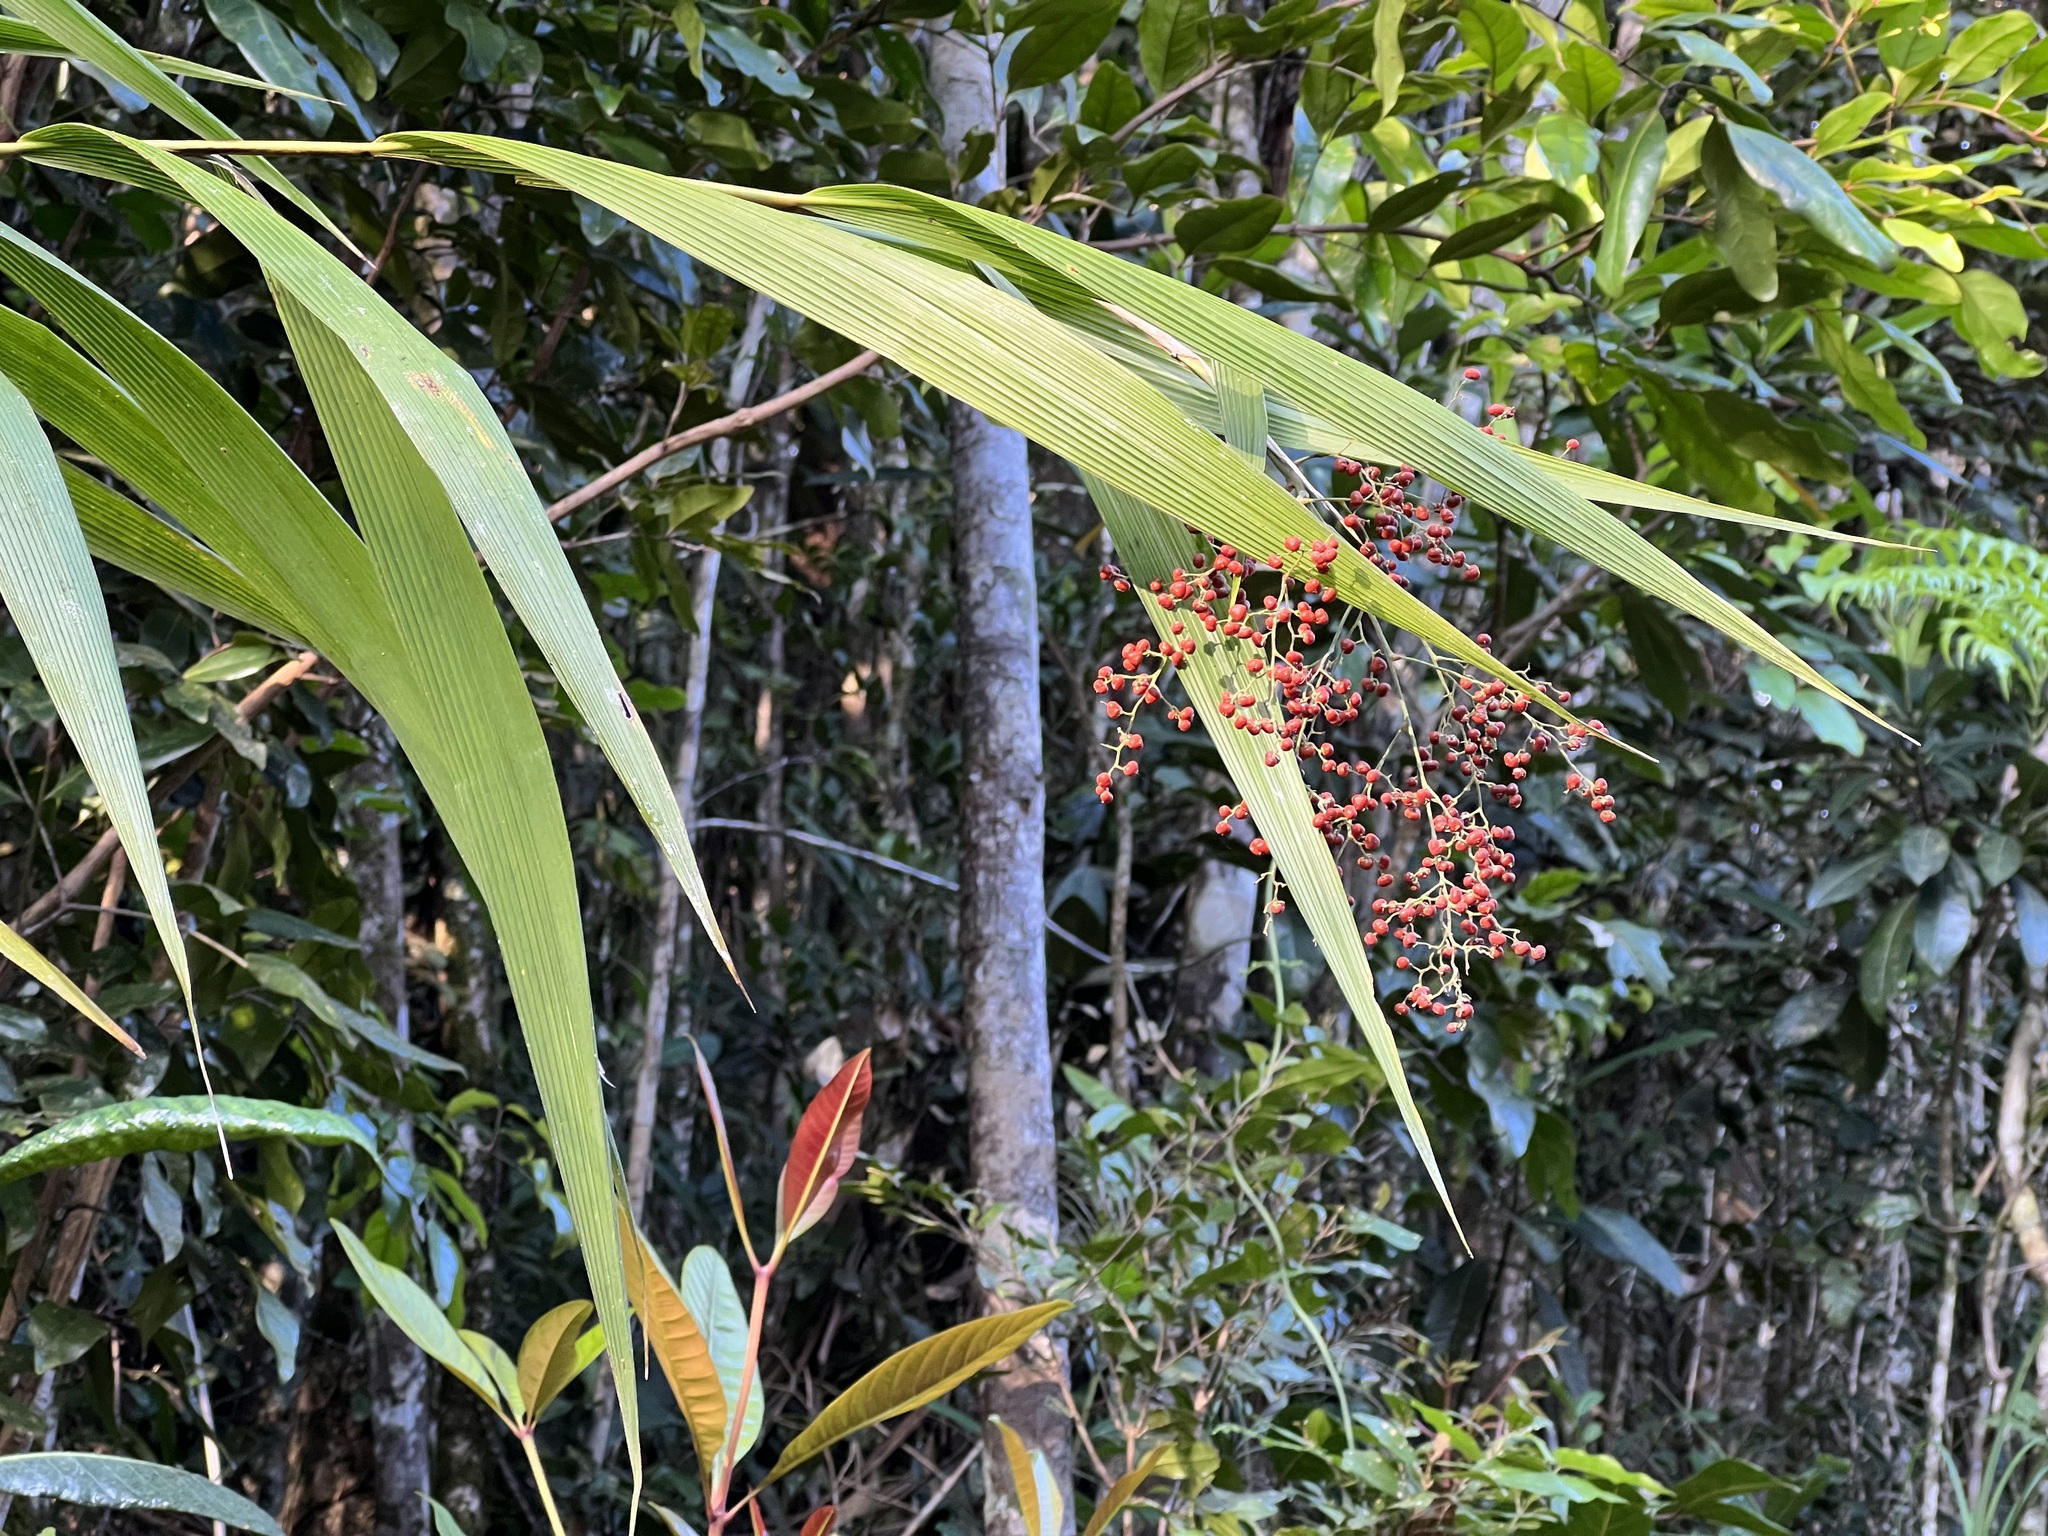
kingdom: Plantae
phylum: Tracheophyta
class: Liliopsida
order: Poales
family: Joinvilleaceae
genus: Joinvillea
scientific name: Joinvillea plicata
